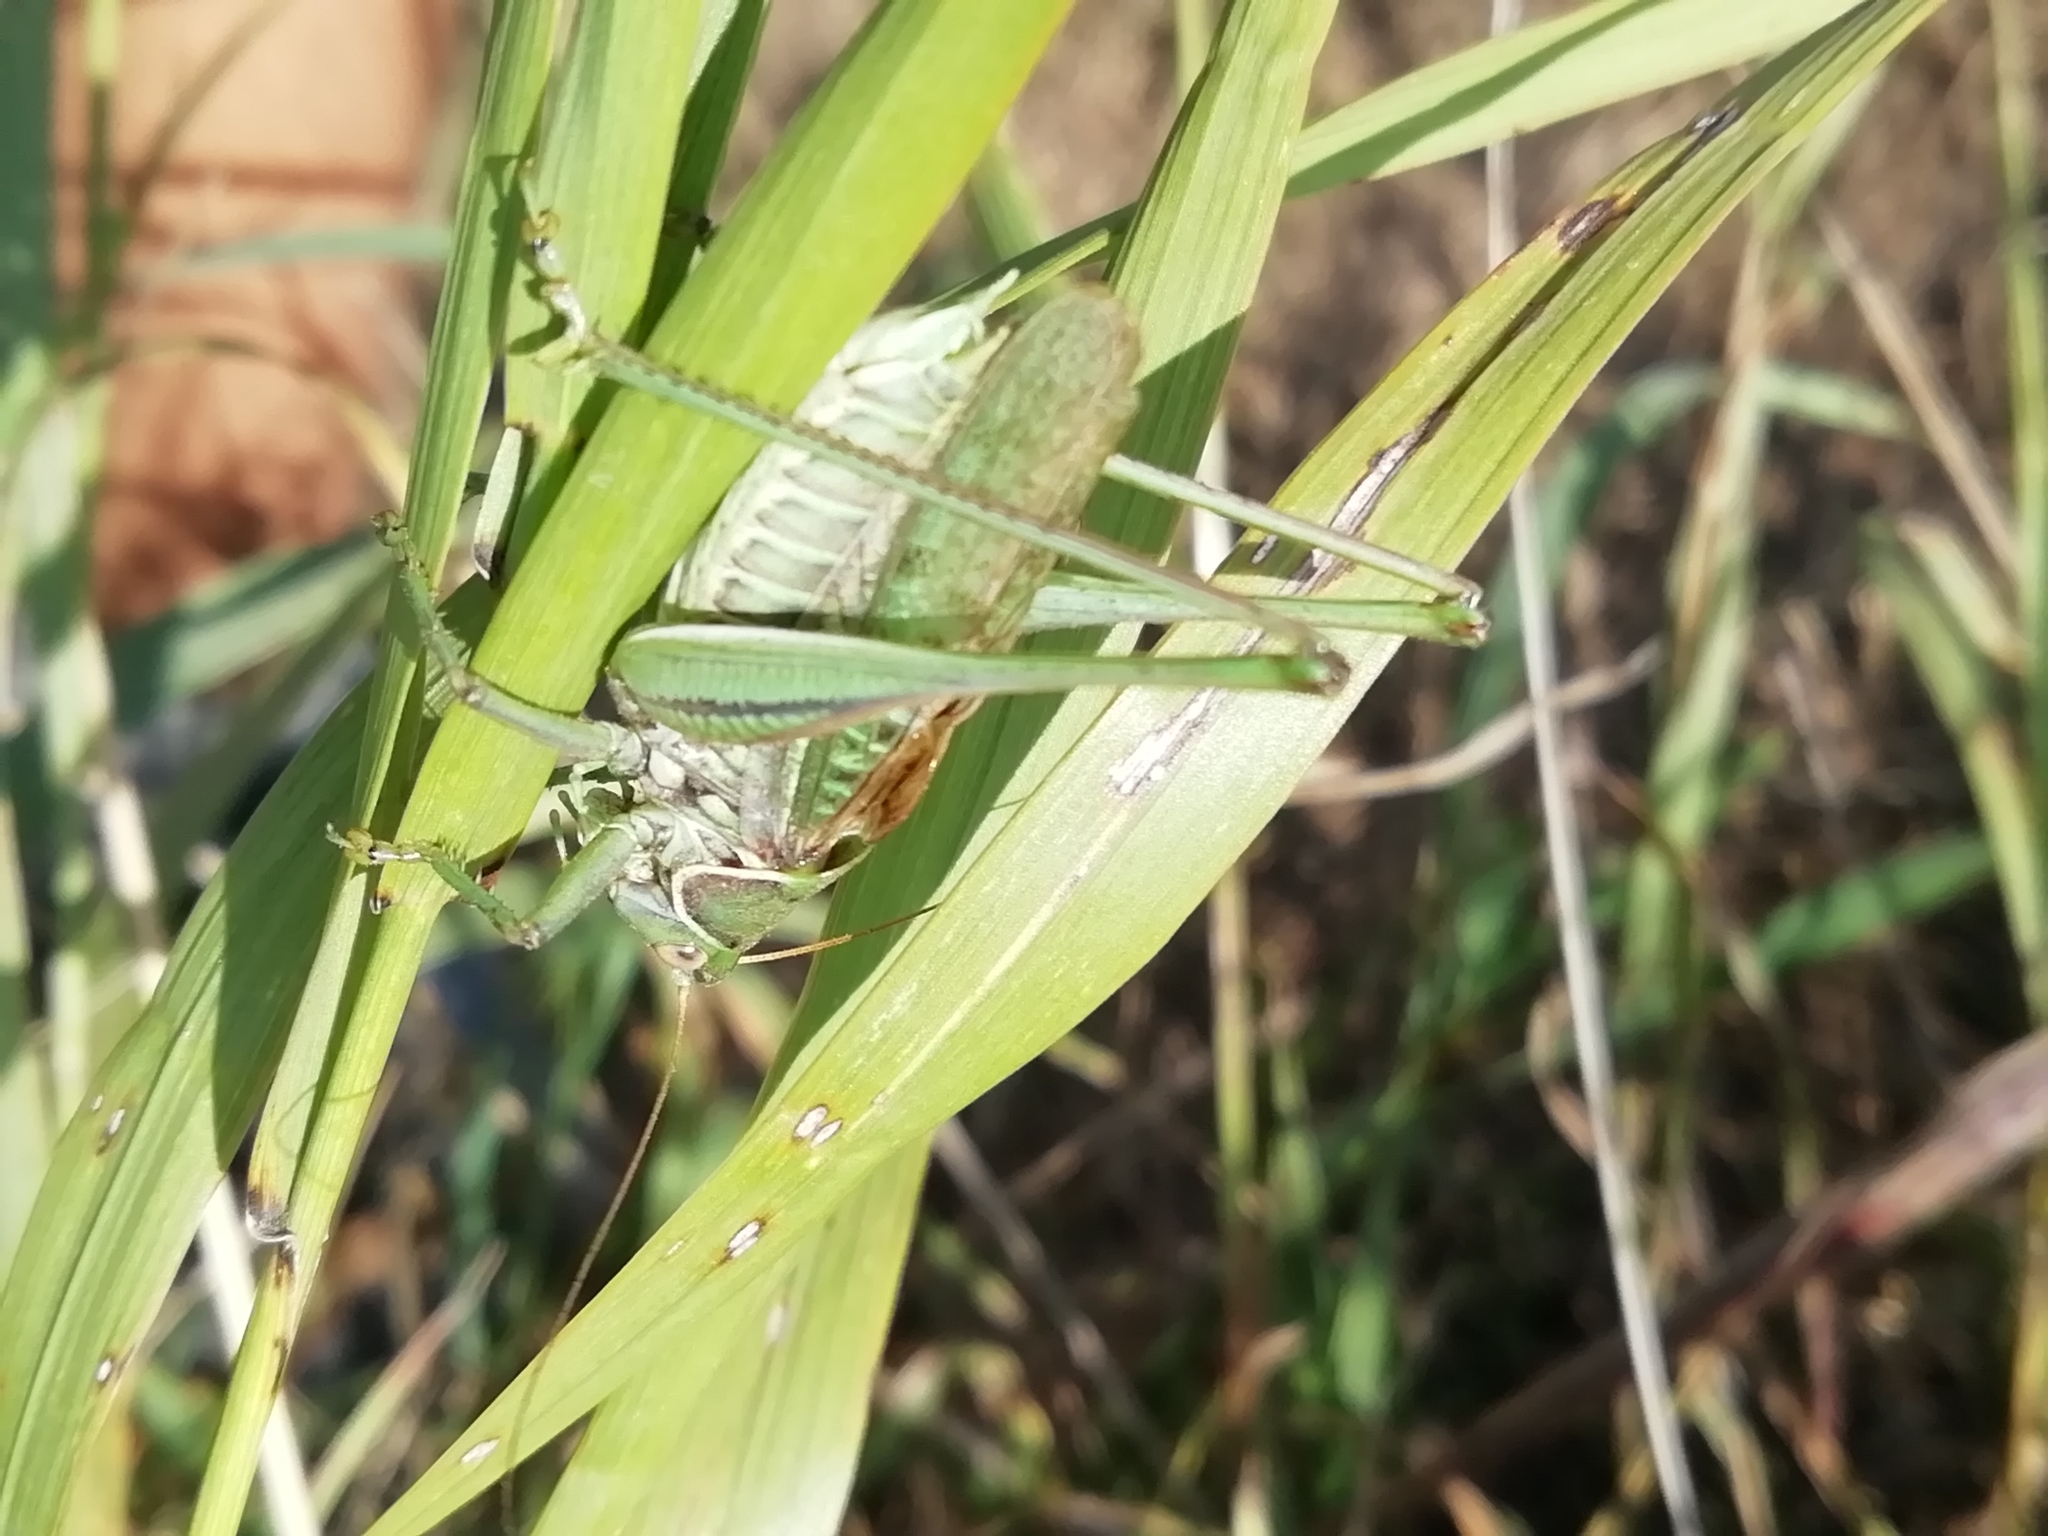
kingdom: Animalia
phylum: Arthropoda
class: Insecta
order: Orthoptera
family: Tettigoniidae
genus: Gampsocleis
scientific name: Gampsocleis glabra
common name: Heath bushcricket
